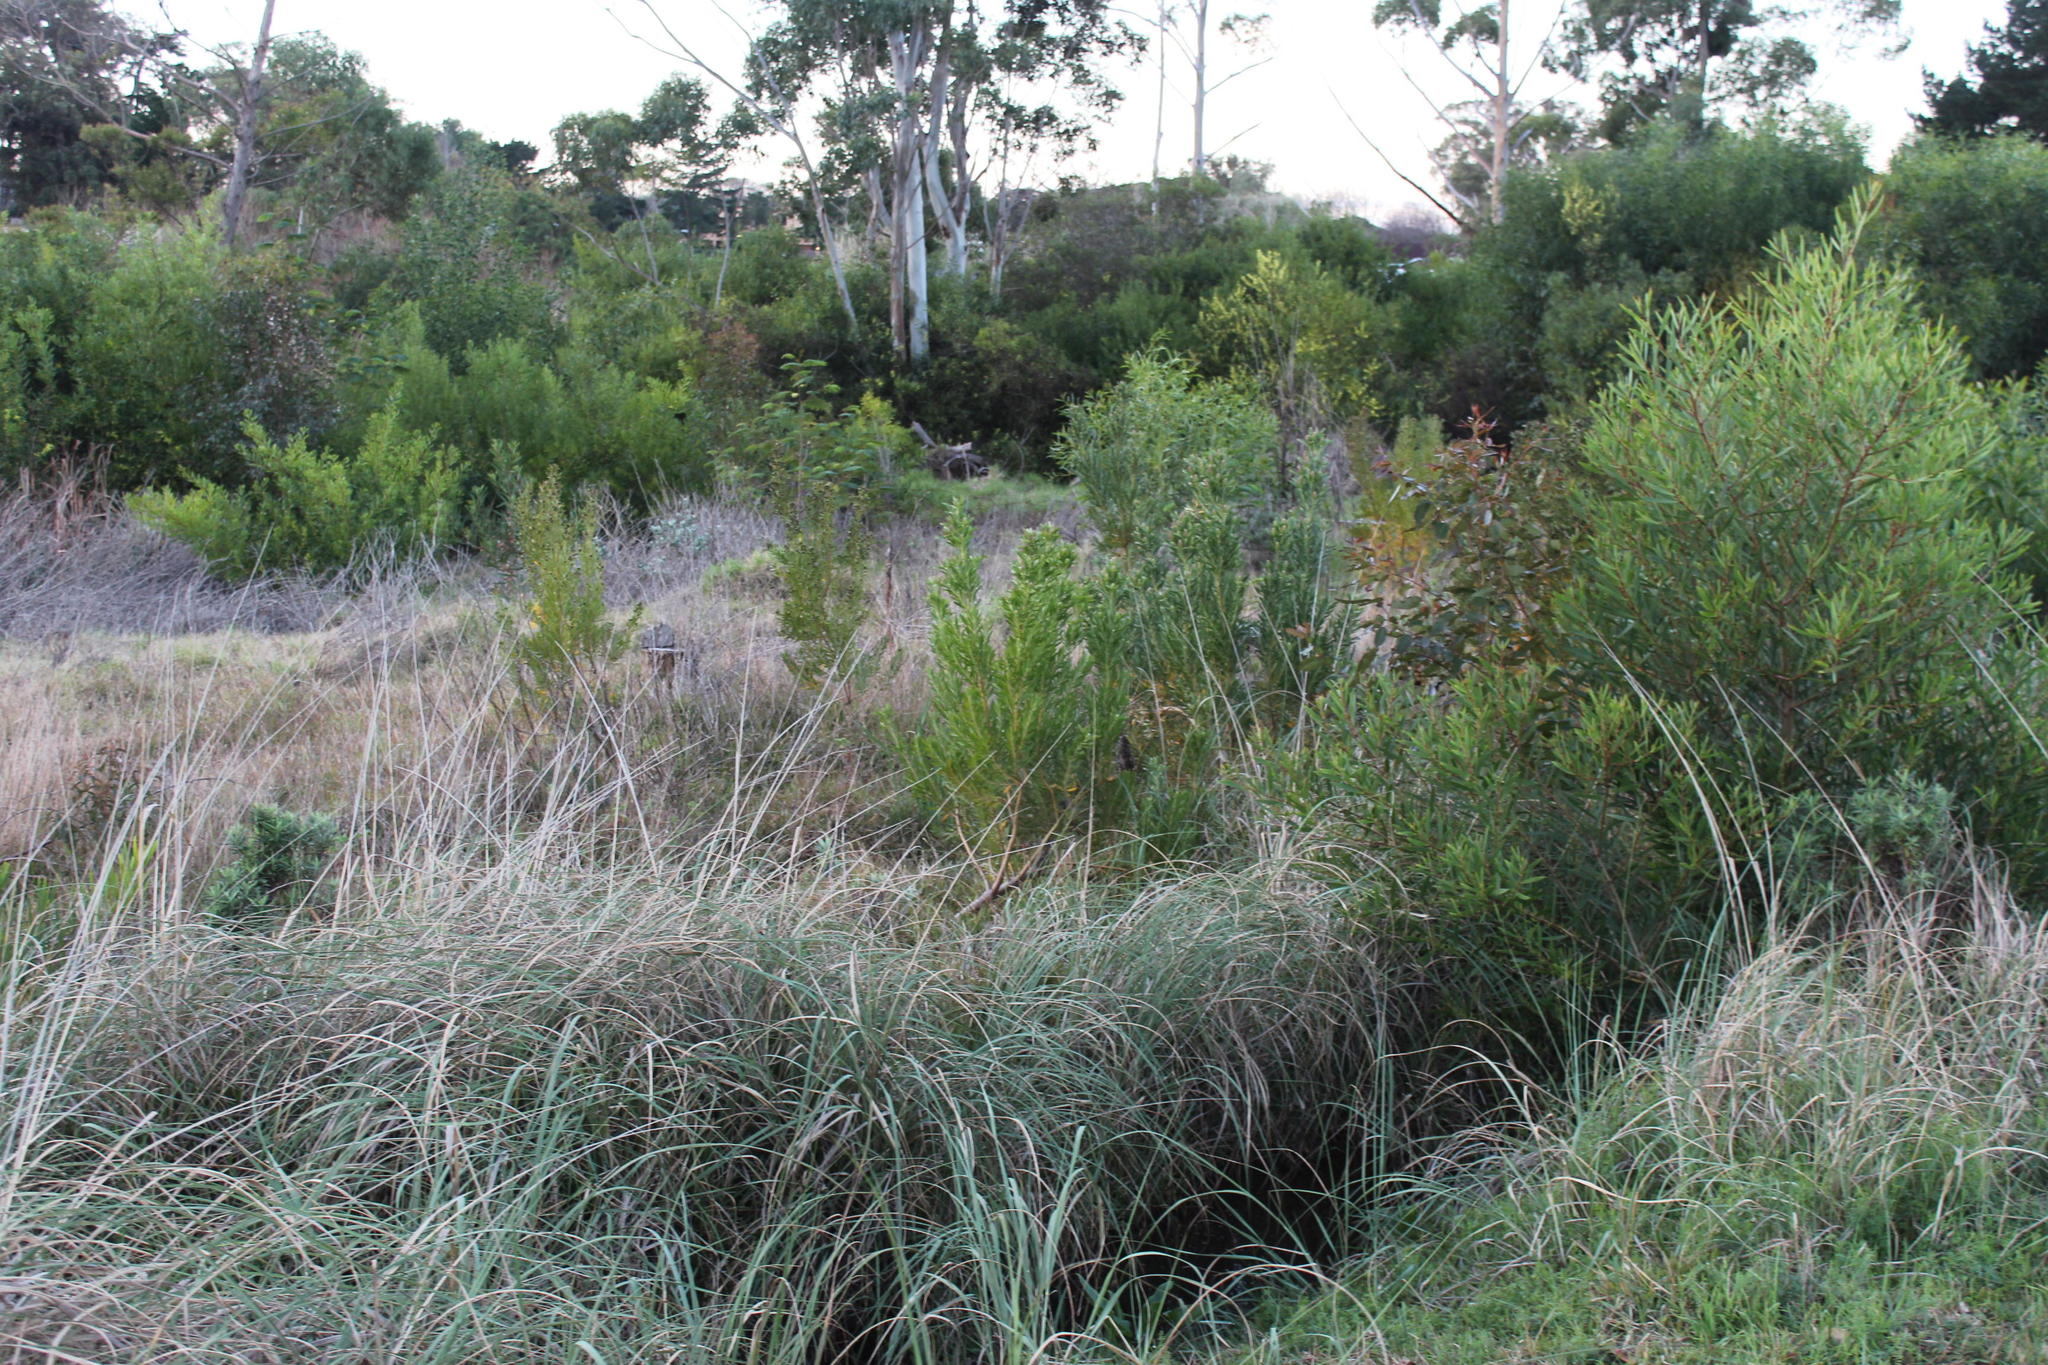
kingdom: Plantae
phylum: Tracheophyta
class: Magnoliopsida
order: Proteales
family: Proteaceae
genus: Leucadendron
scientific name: Leucadendron macowanii
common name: Acacia-leaf conebush
